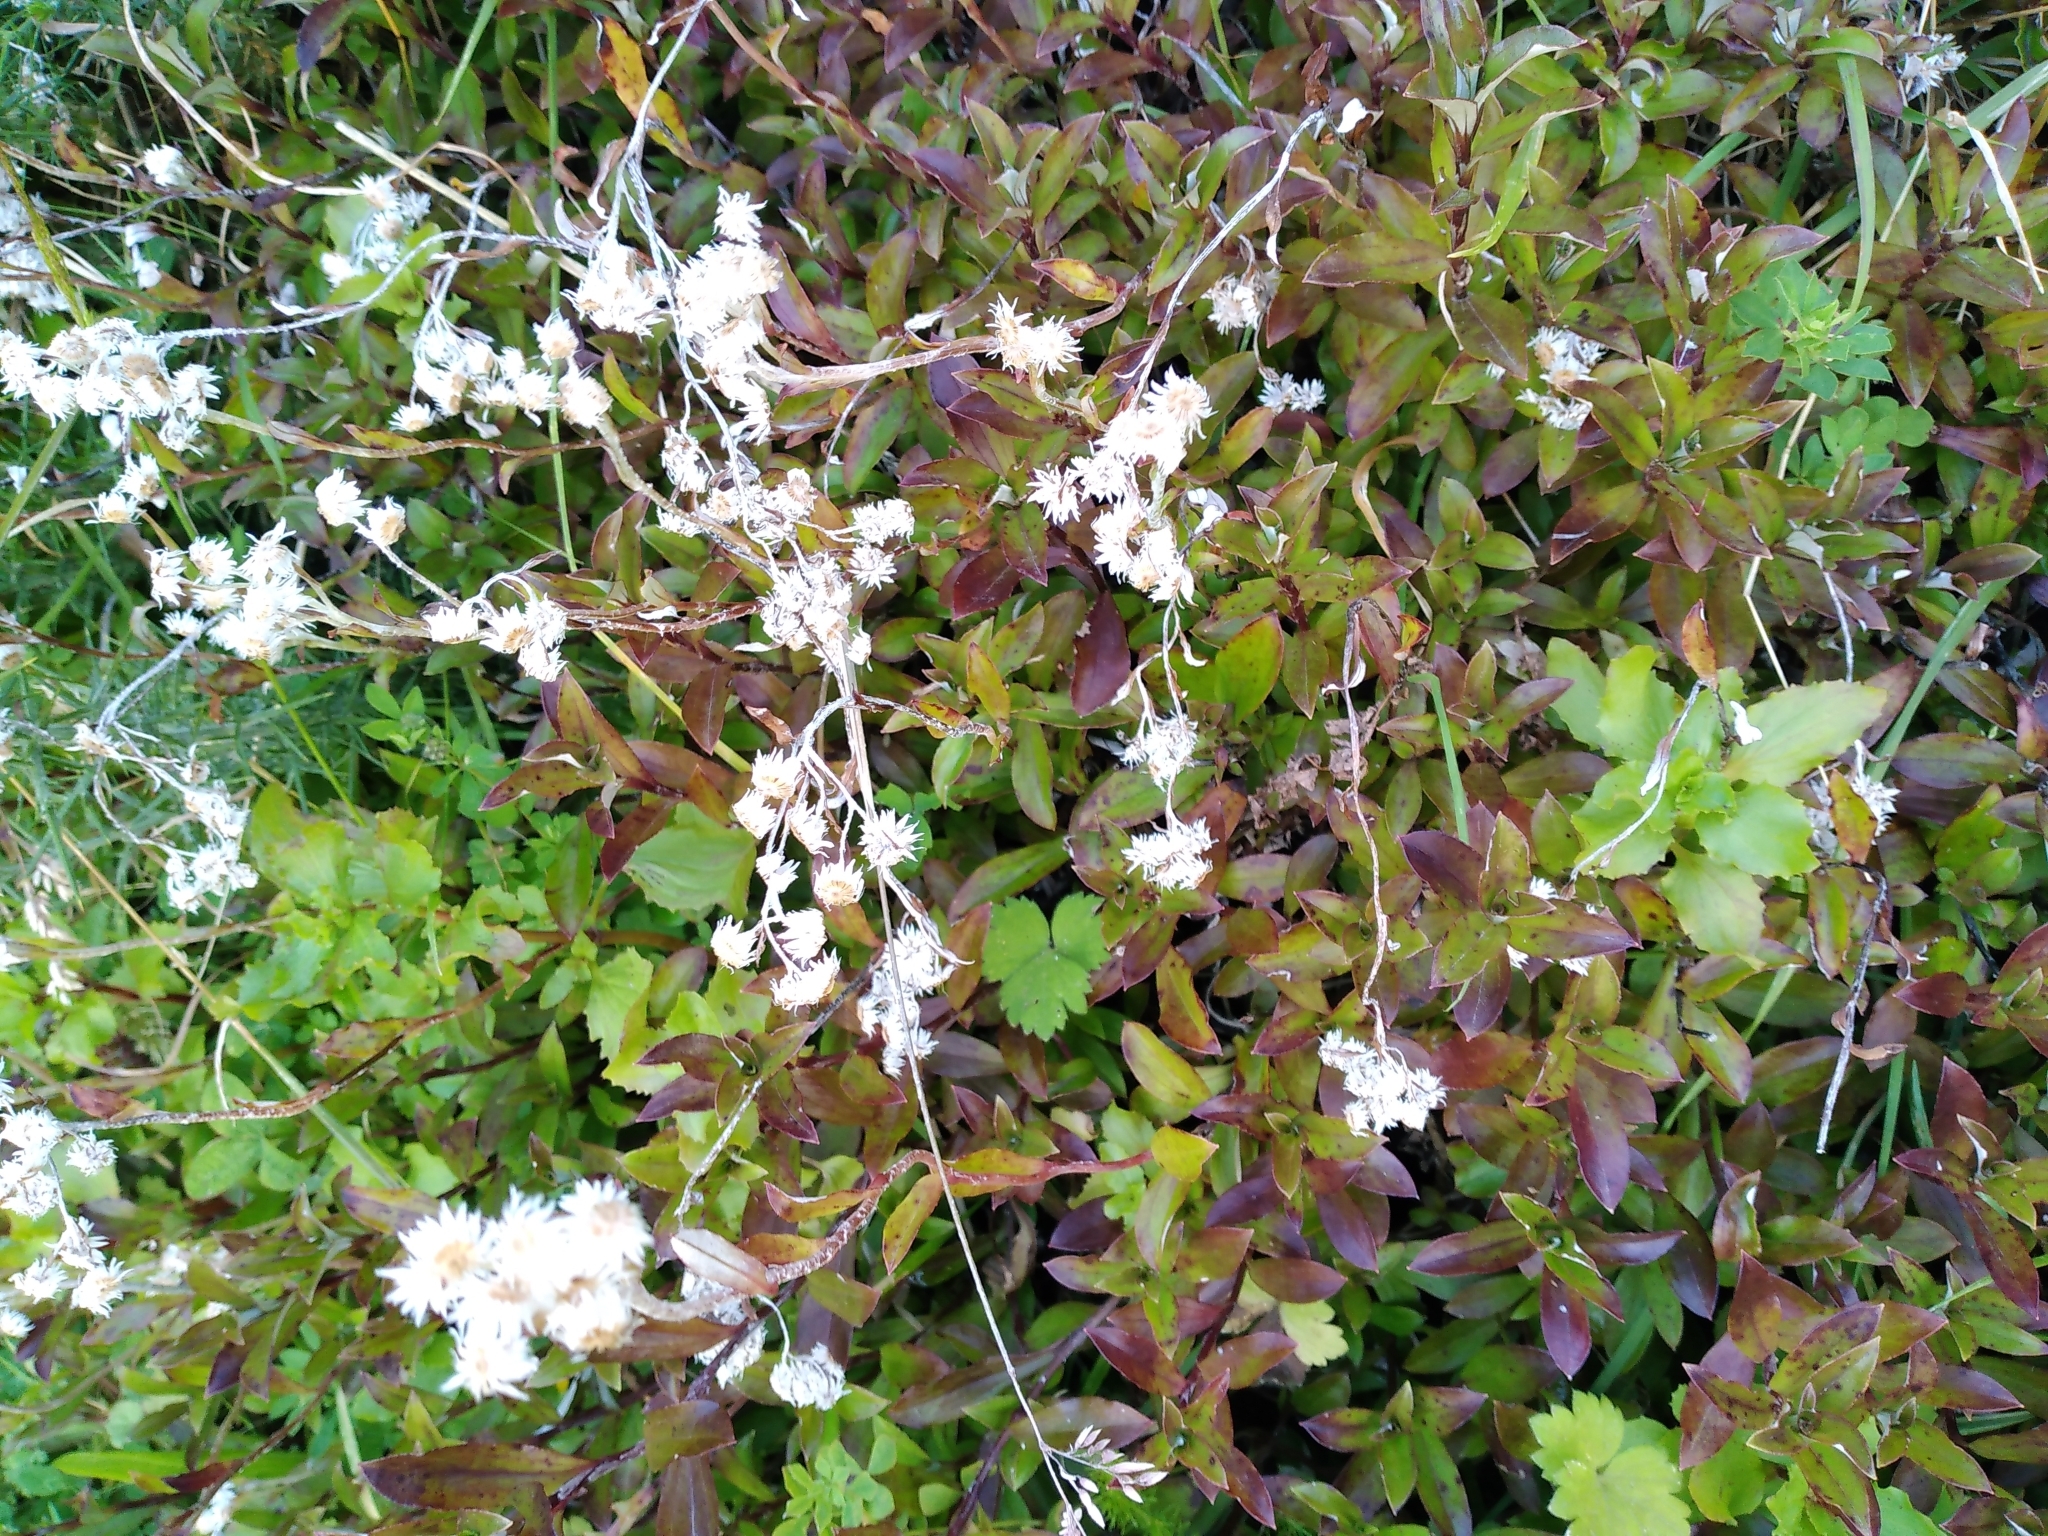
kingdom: Plantae
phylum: Tracheophyta
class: Magnoliopsida
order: Asterales
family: Asteraceae
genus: Anaphalioides
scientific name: Anaphalioides trinervis
